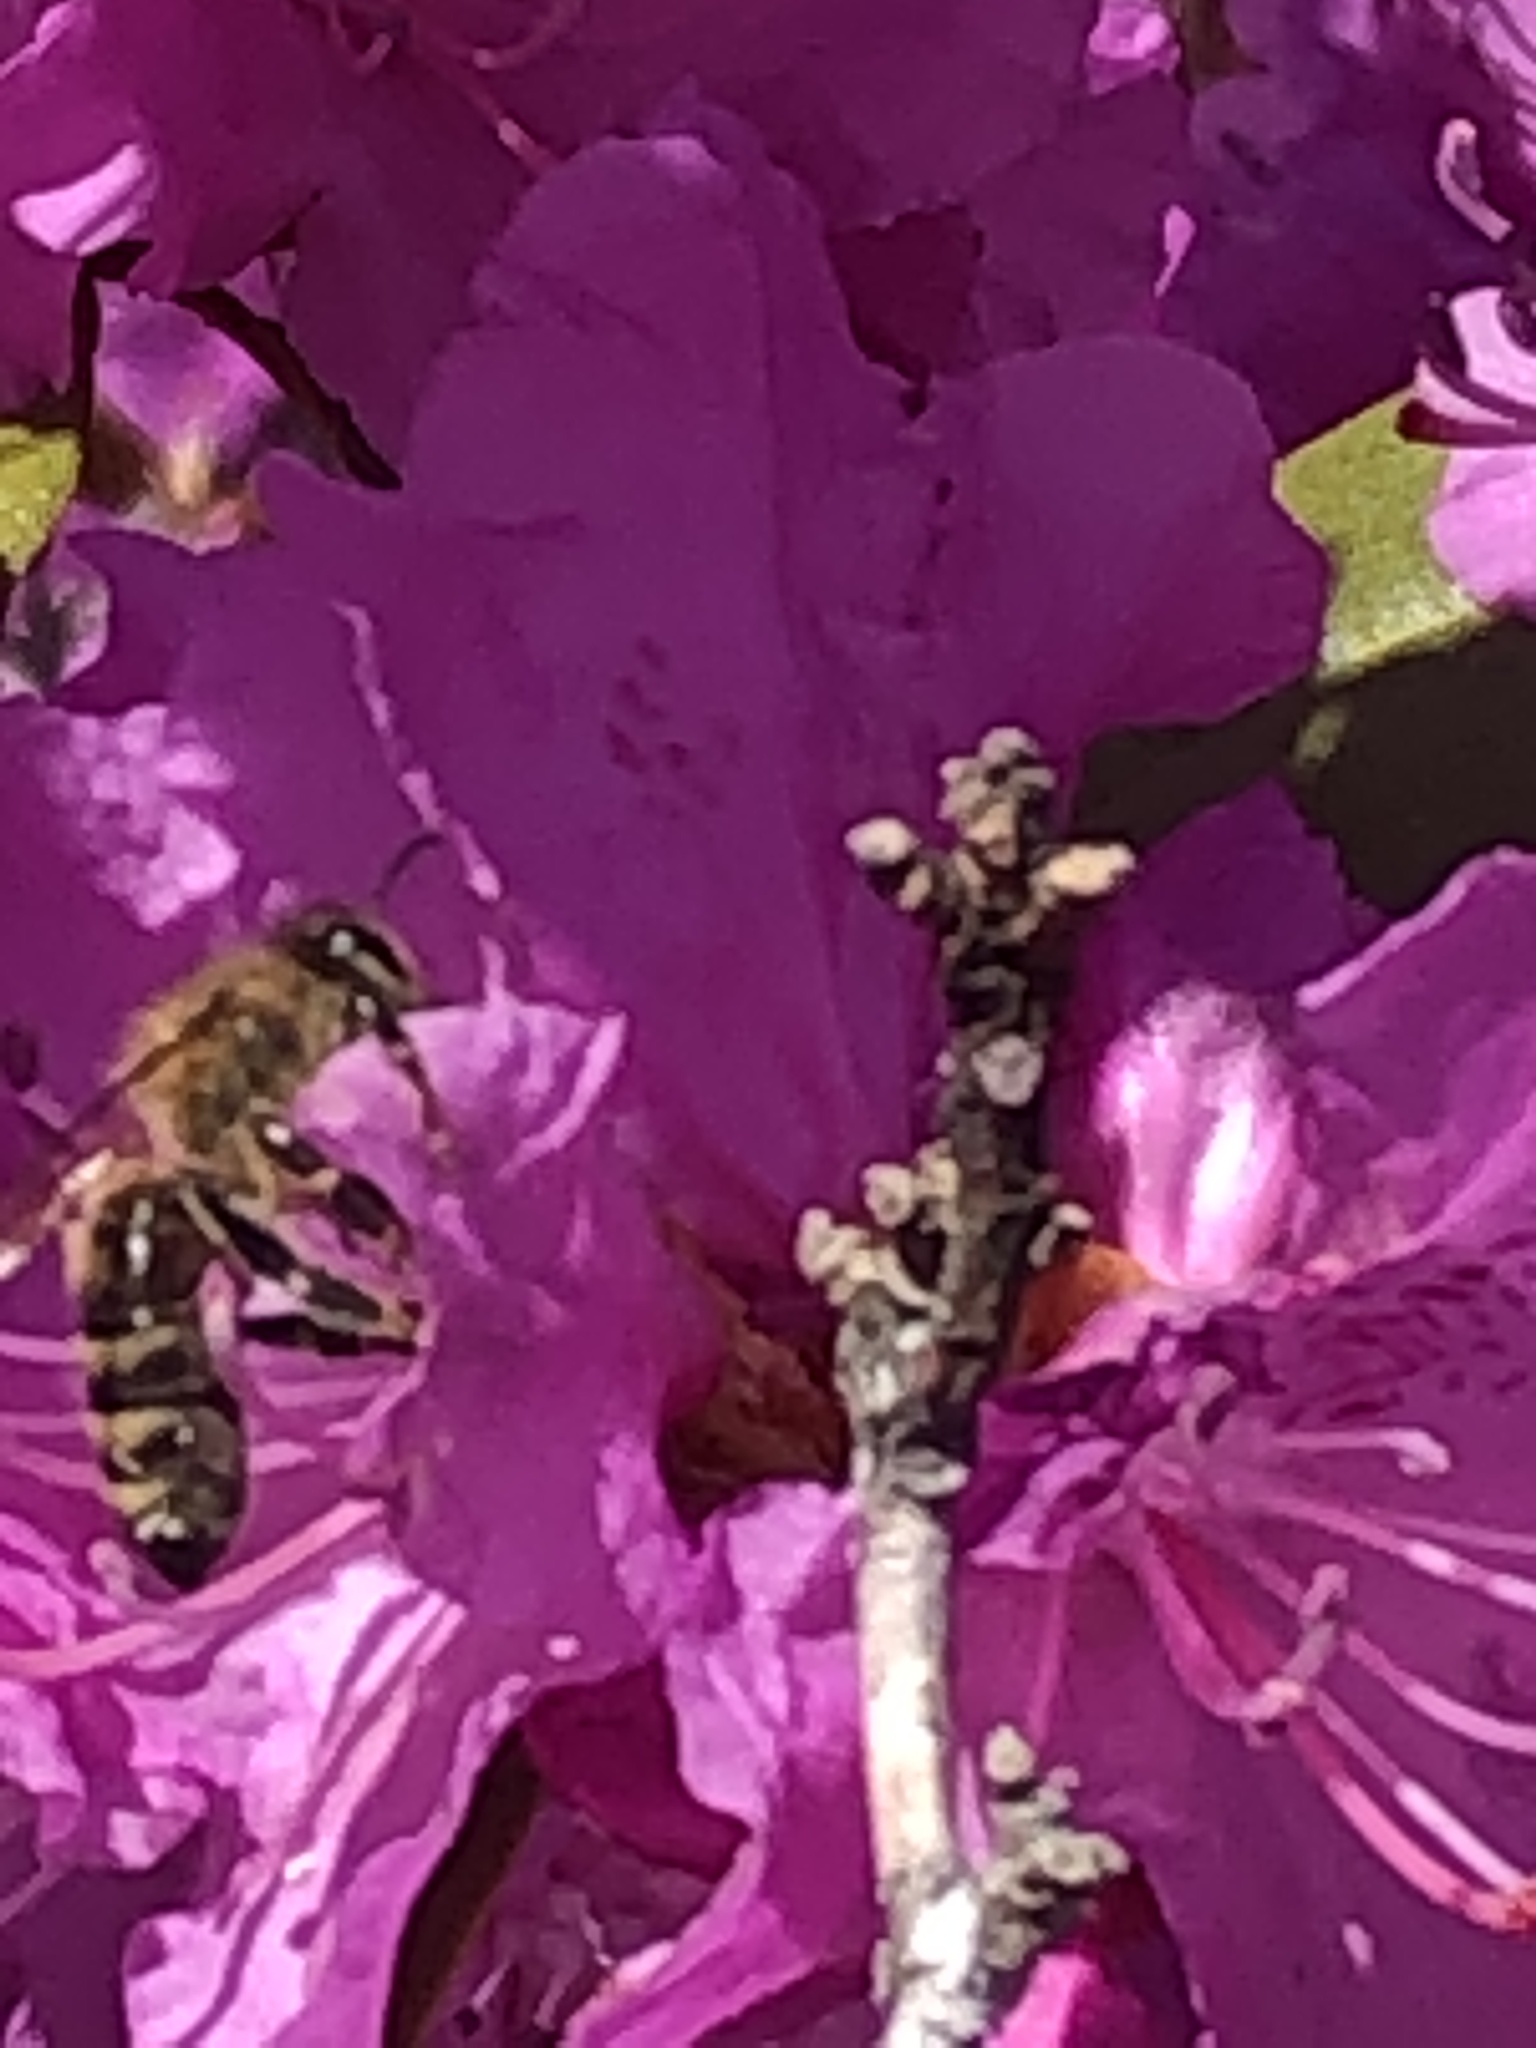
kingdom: Animalia
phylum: Arthropoda
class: Insecta
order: Hymenoptera
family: Apidae
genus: Apis
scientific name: Apis mellifera
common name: Honey bee
